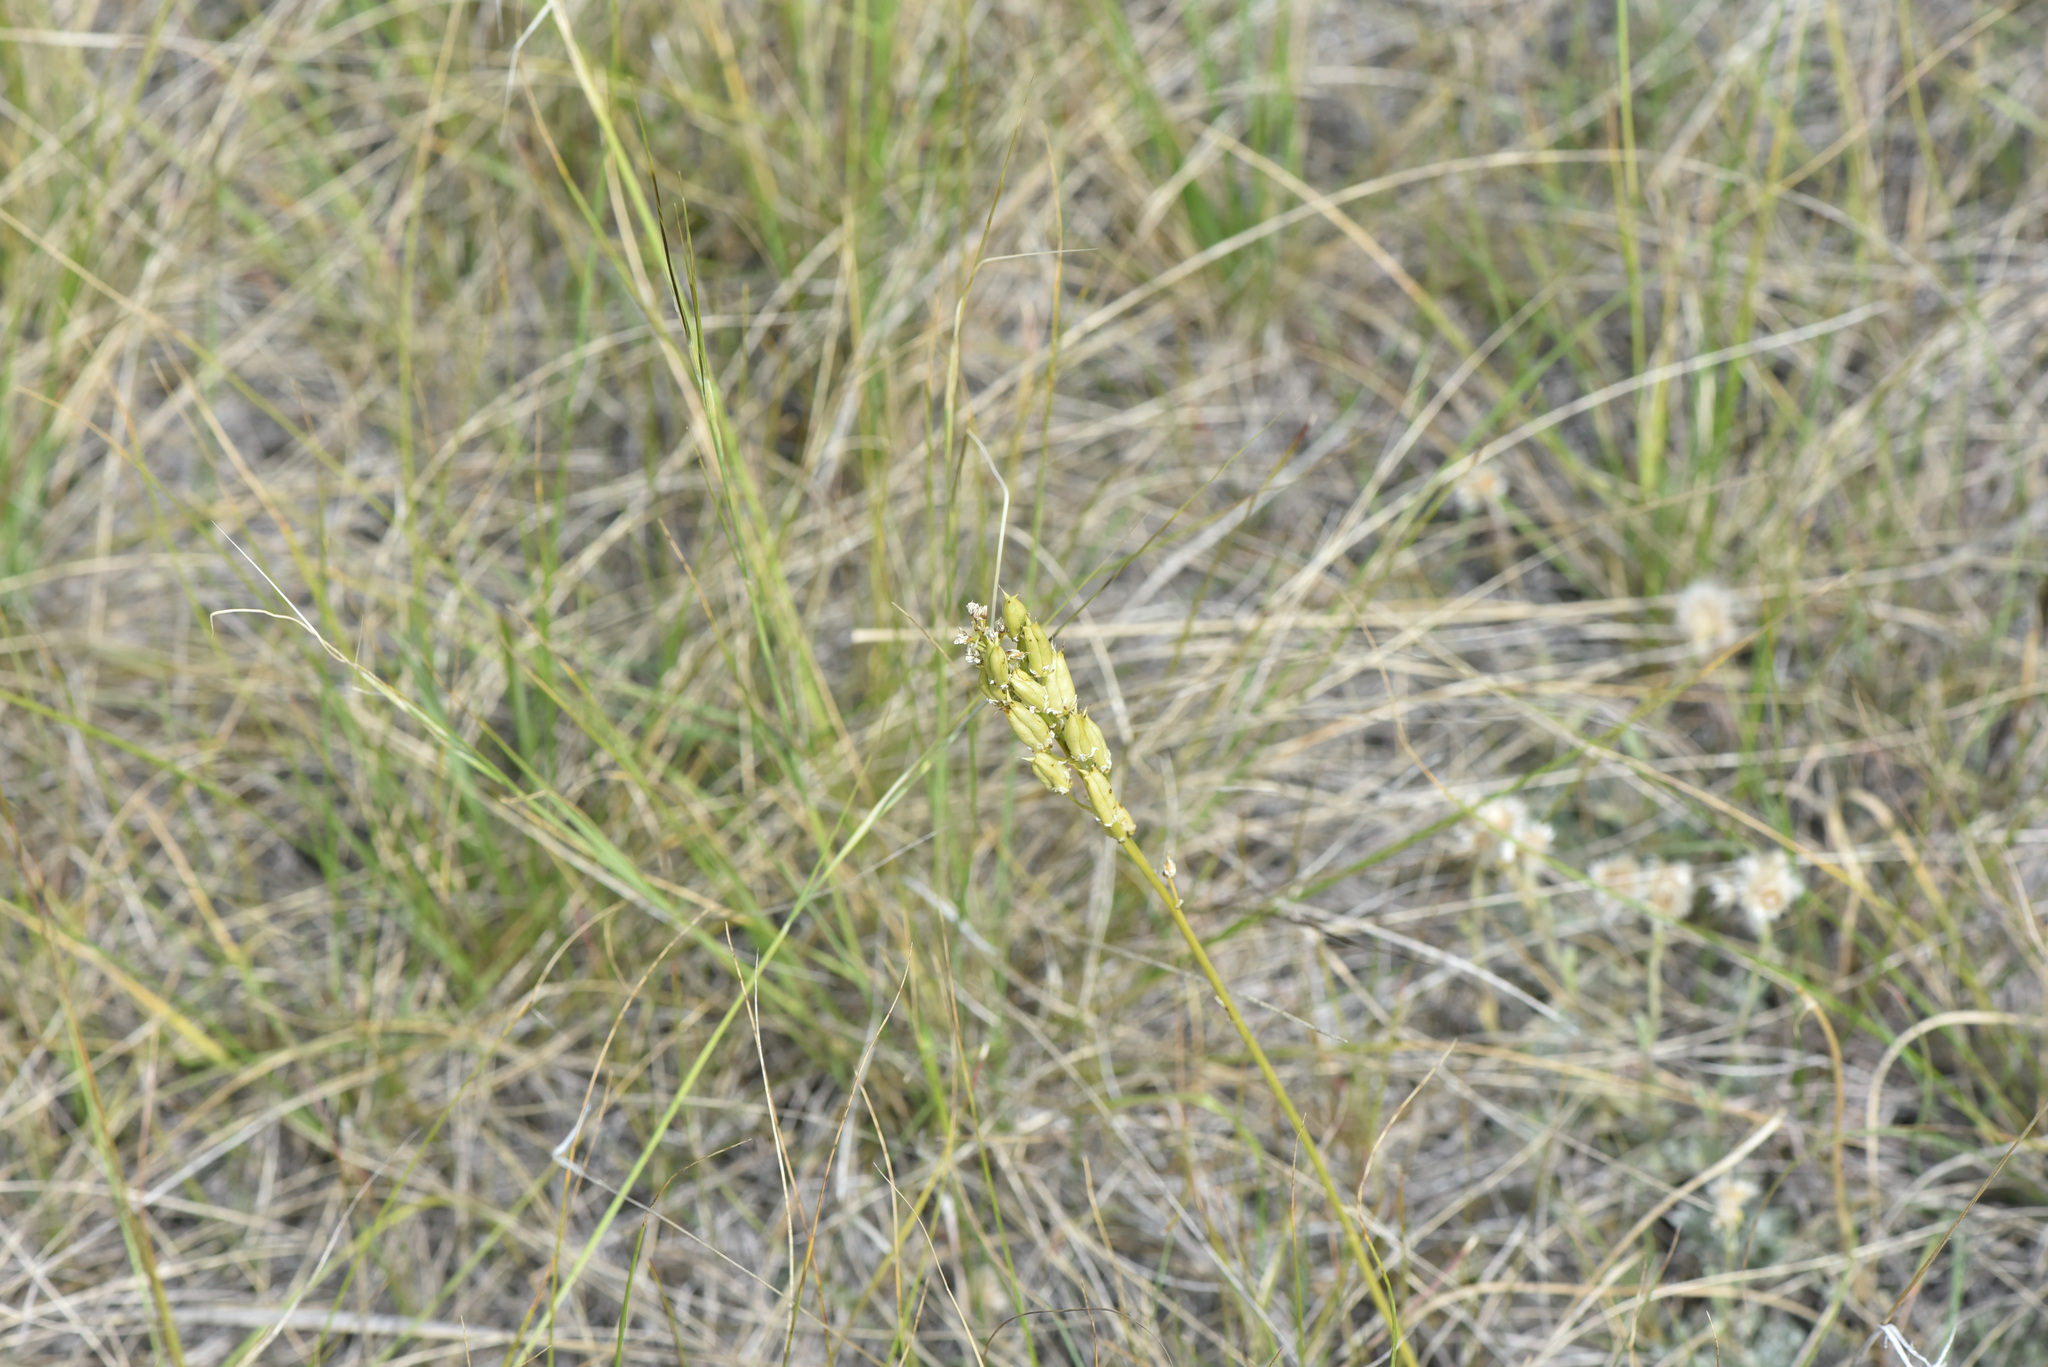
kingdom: Plantae
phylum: Tracheophyta
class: Liliopsida
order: Liliales
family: Melanthiaceae
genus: Toxicoscordion
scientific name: Toxicoscordion venenosum
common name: Meadow death camas
